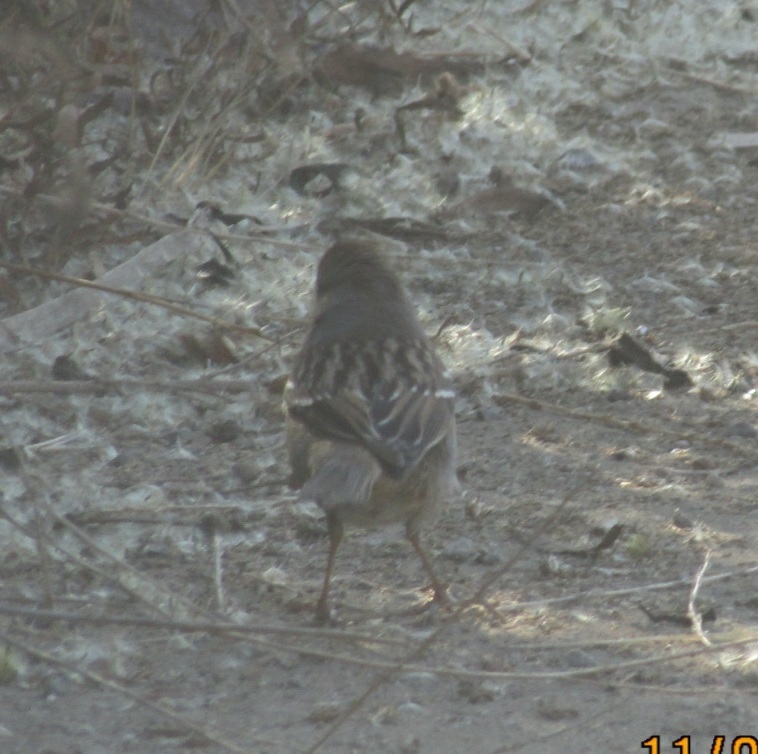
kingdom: Animalia
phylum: Chordata
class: Aves
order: Passeriformes
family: Passerellidae
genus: Zonotrichia
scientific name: Zonotrichia leucophrys
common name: White-crowned sparrow
